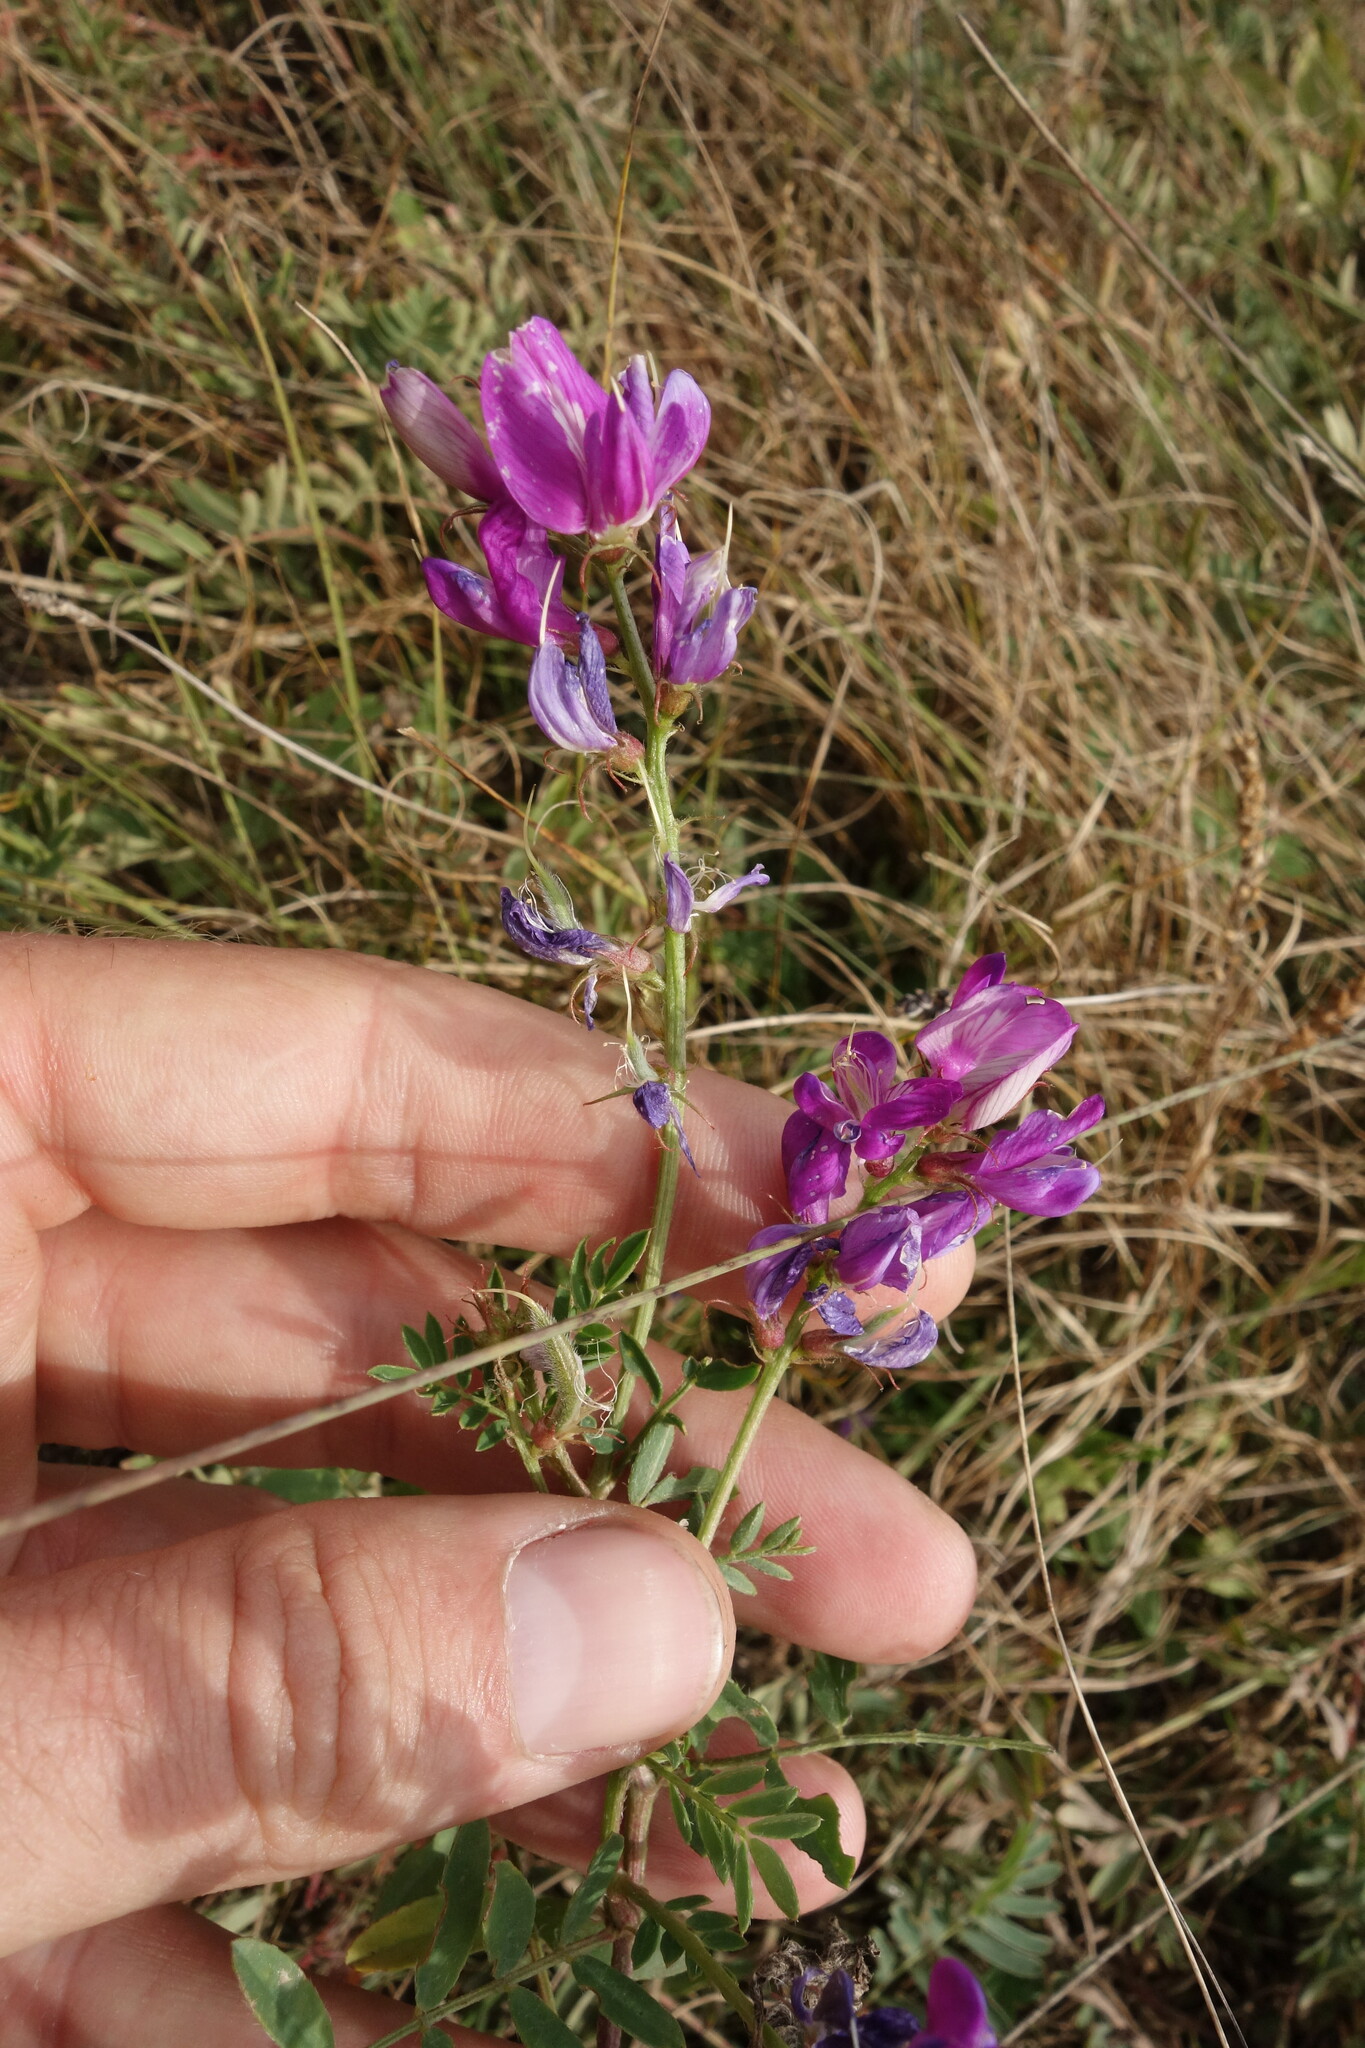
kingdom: Plantae
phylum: Tracheophyta
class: Magnoliopsida
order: Fabales
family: Fabaceae
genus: Astragalus
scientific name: Astragalus davuricus
